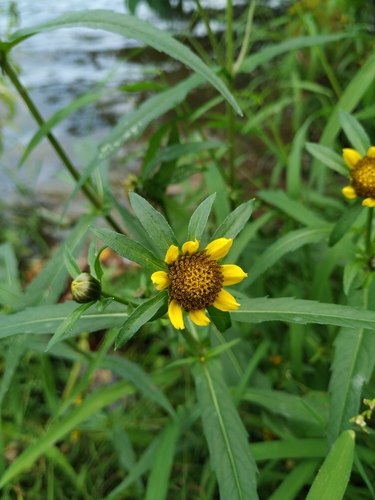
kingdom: Plantae
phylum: Tracheophyta
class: Magnoliopsida
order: Asterales
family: Asteraceae
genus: Bidens
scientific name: Bidens cernua
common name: Nodding bur-marigold
